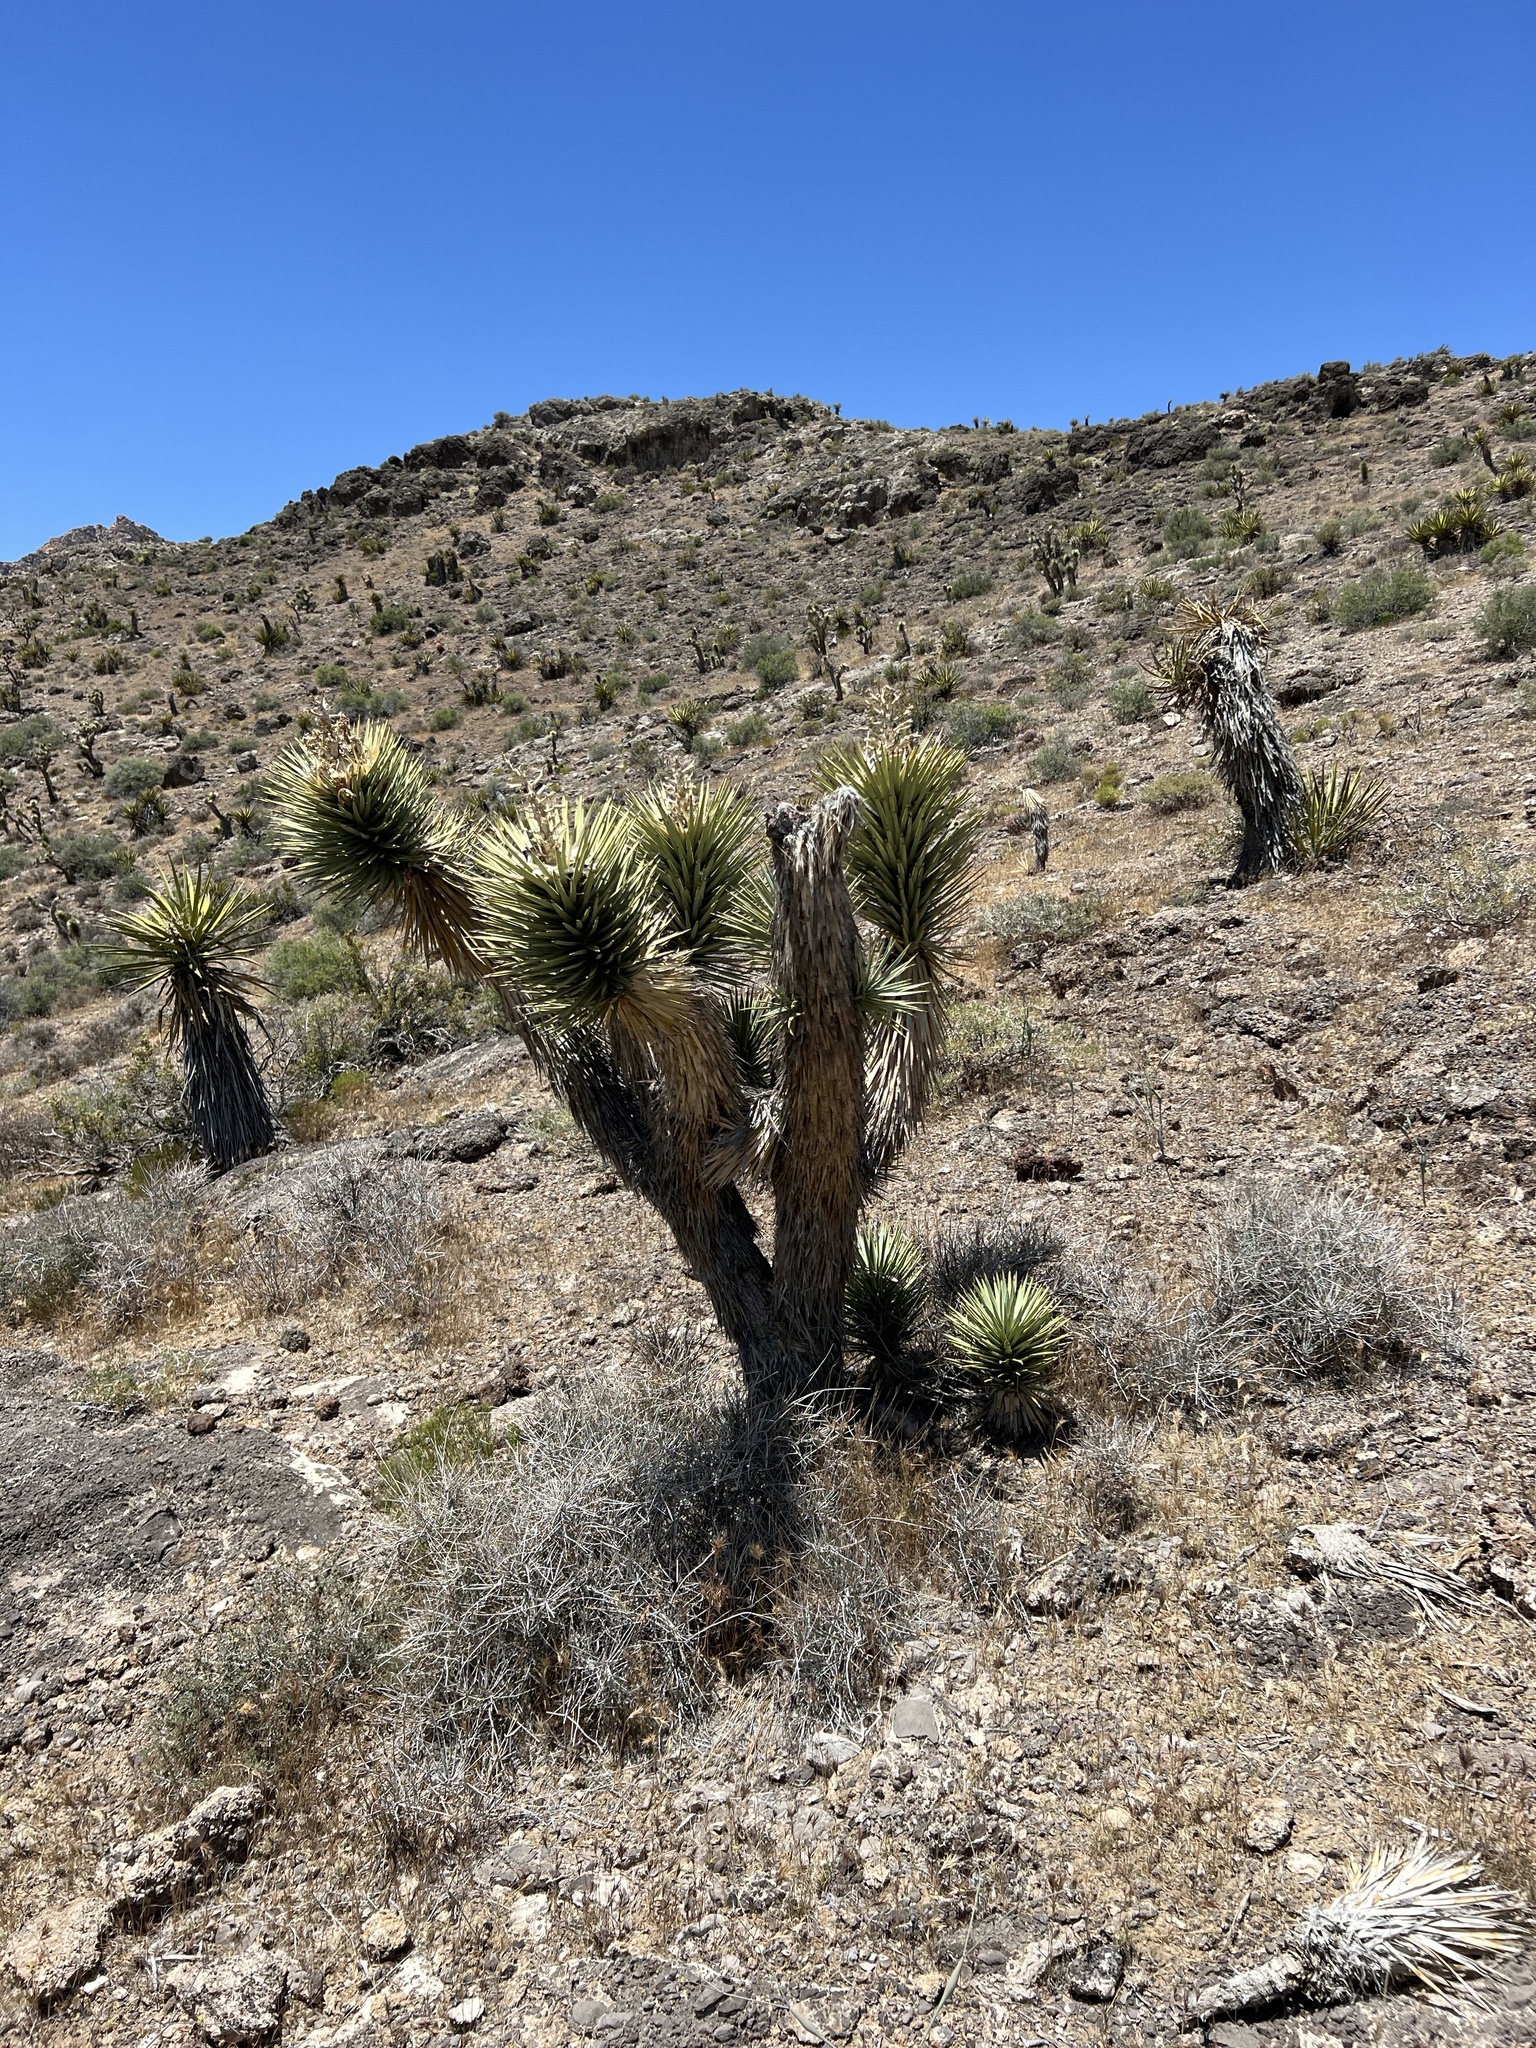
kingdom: Plantae
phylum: Tracheophyta
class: Liliopsida
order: Asparagales
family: Asparagaceae
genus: Yucca
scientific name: Yucca brevifolia
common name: Joshua tree
